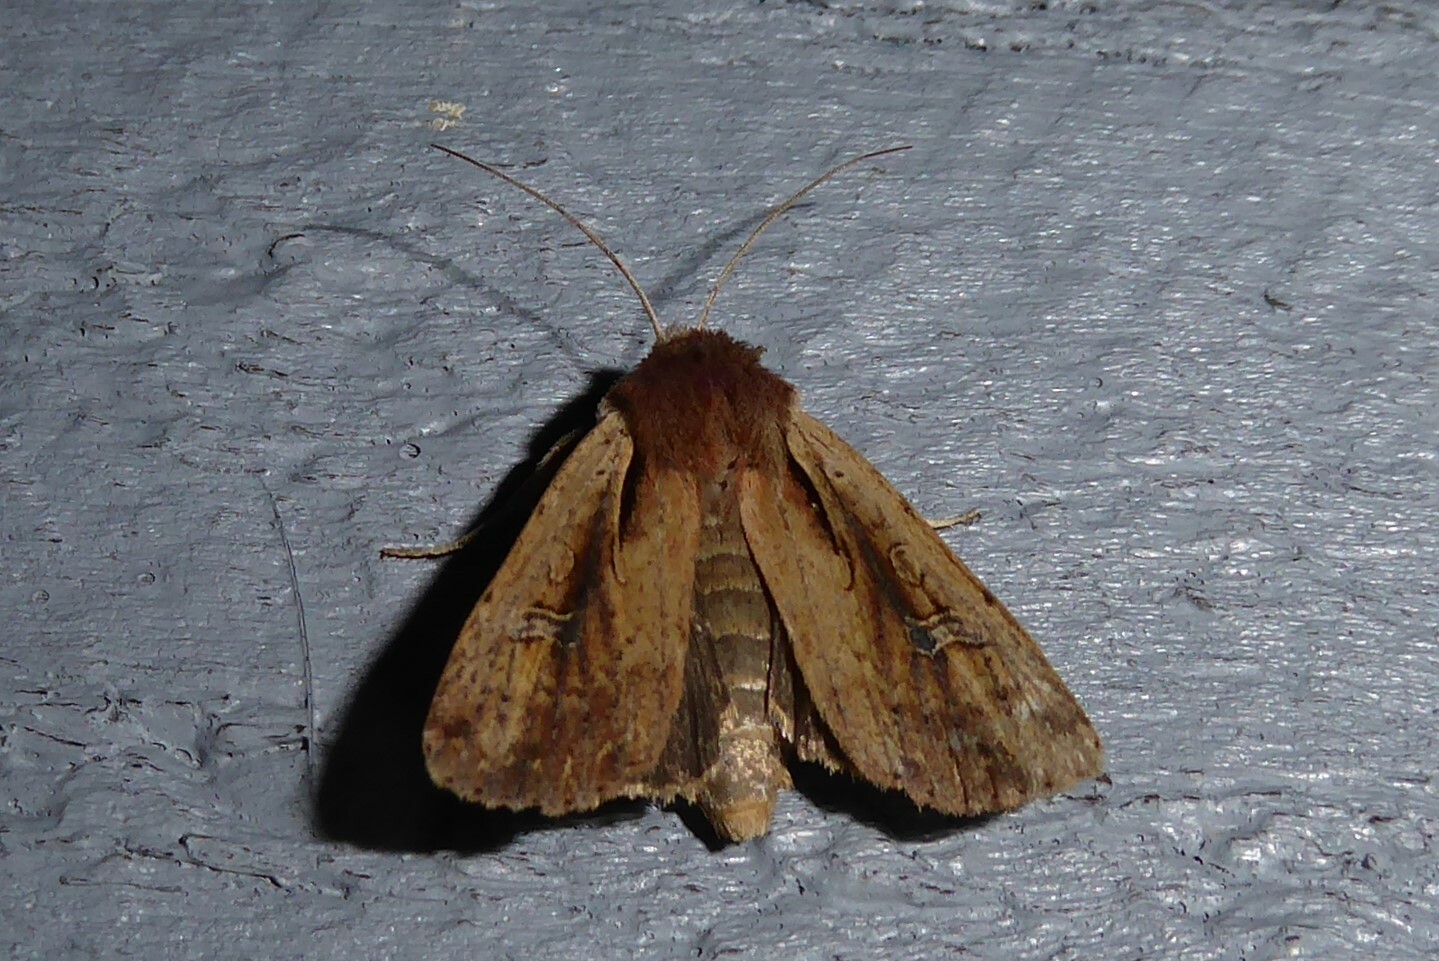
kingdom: Animalia
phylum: Arthropoda
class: Insecta
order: Lepidoptera
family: Noctuidae
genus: Ichneutica
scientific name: Ichneutica atristriga
